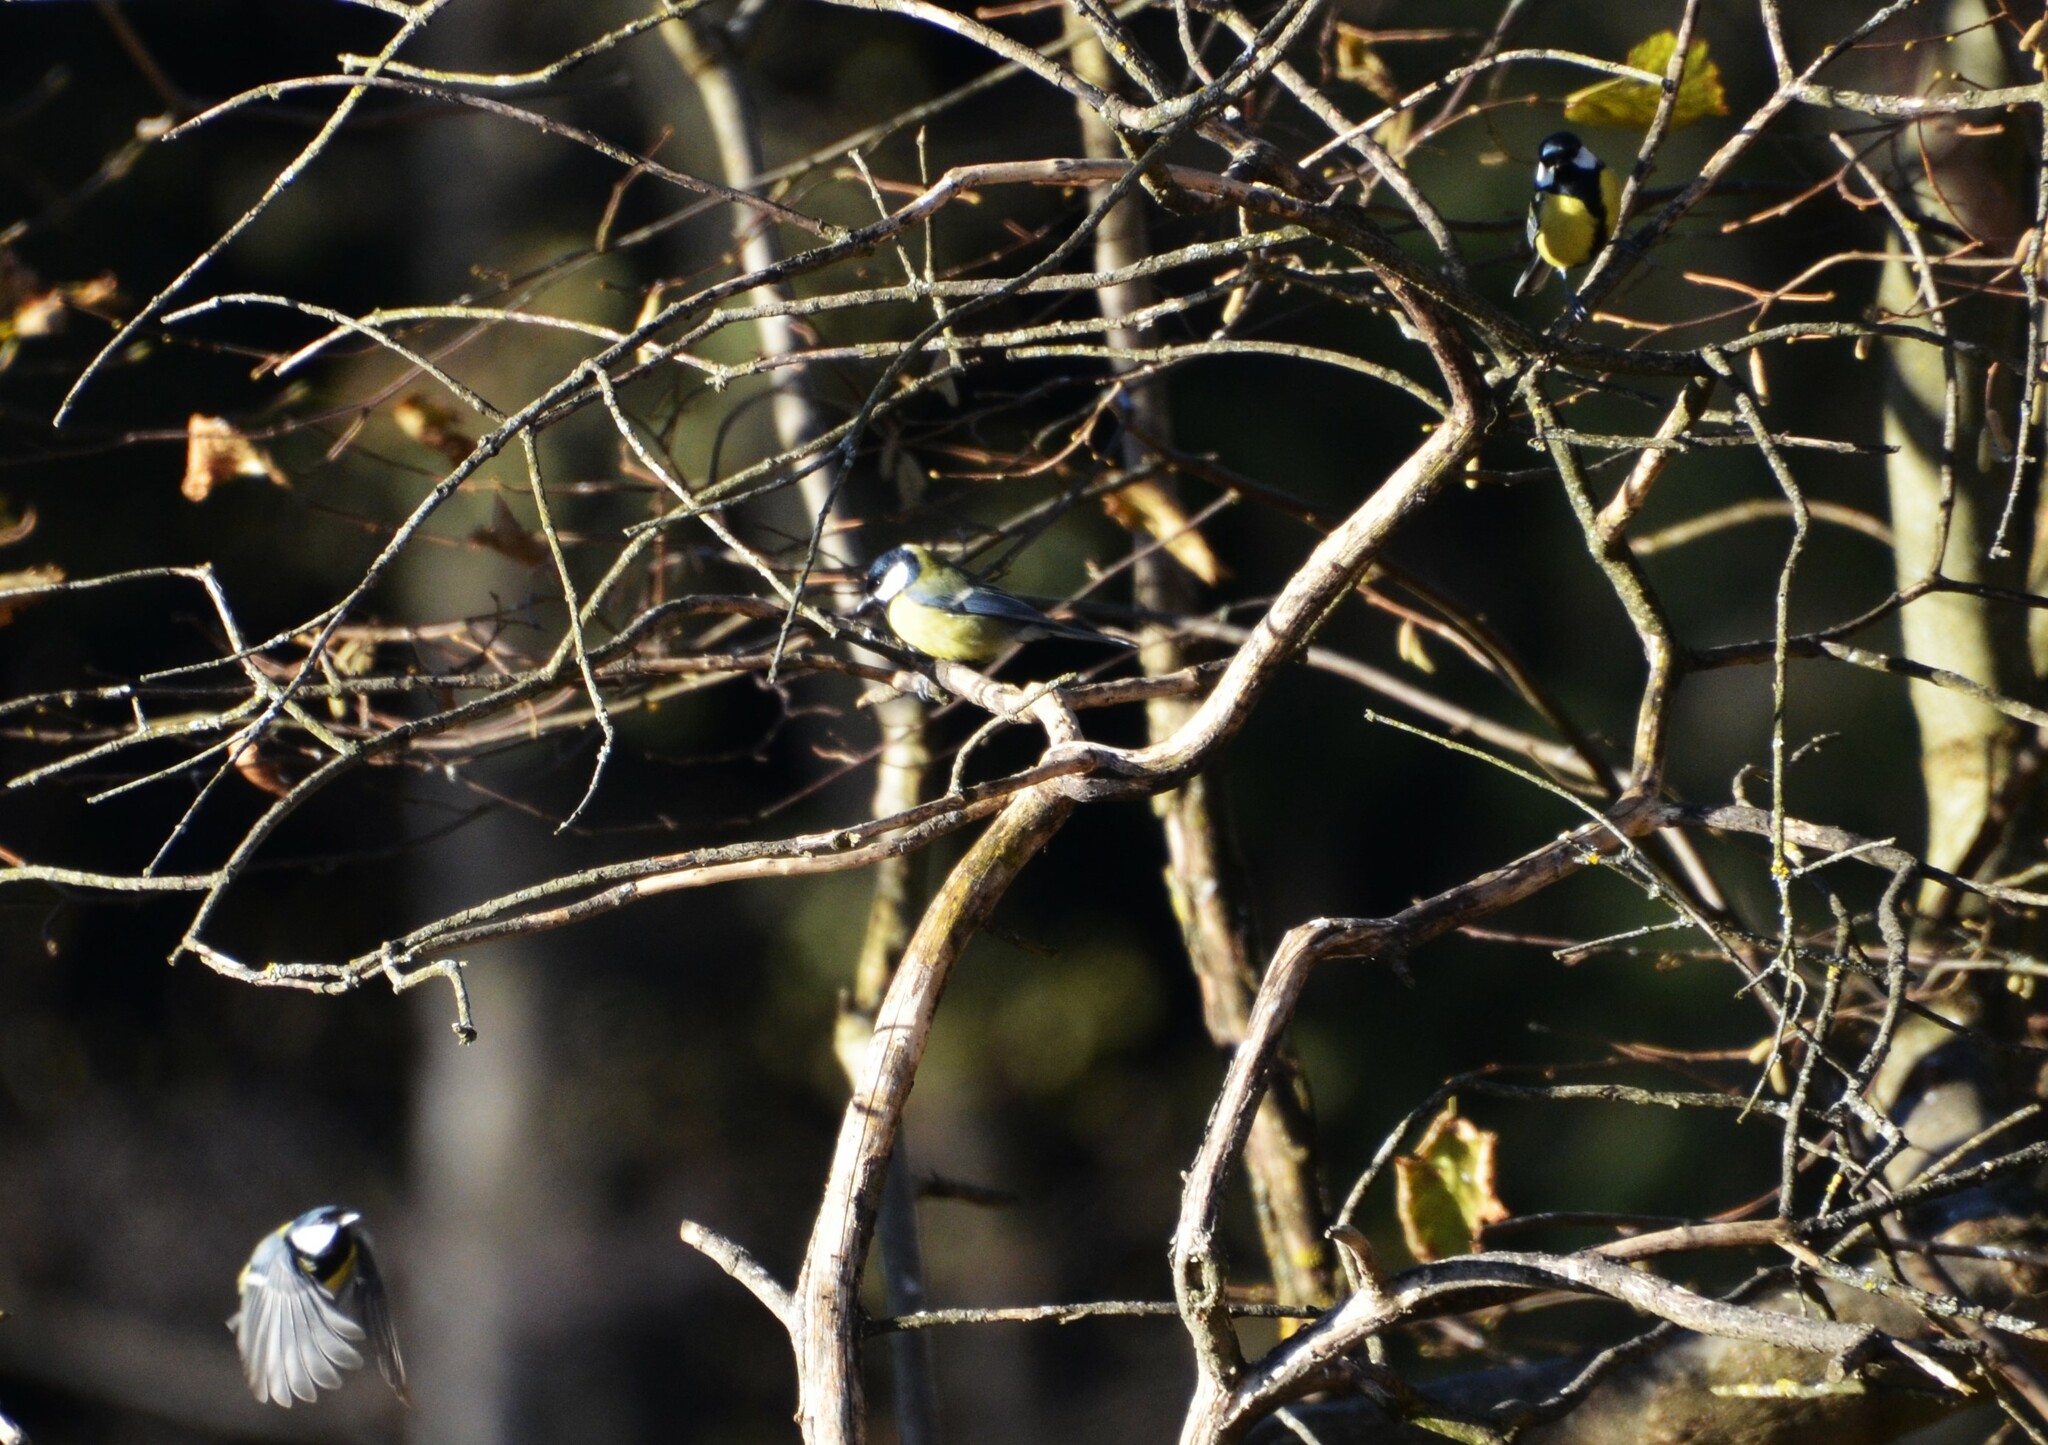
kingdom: Animalia
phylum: Chordata
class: Aves
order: Passeriformes
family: Paridae
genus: Parus
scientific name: Parus major
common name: Great tit
